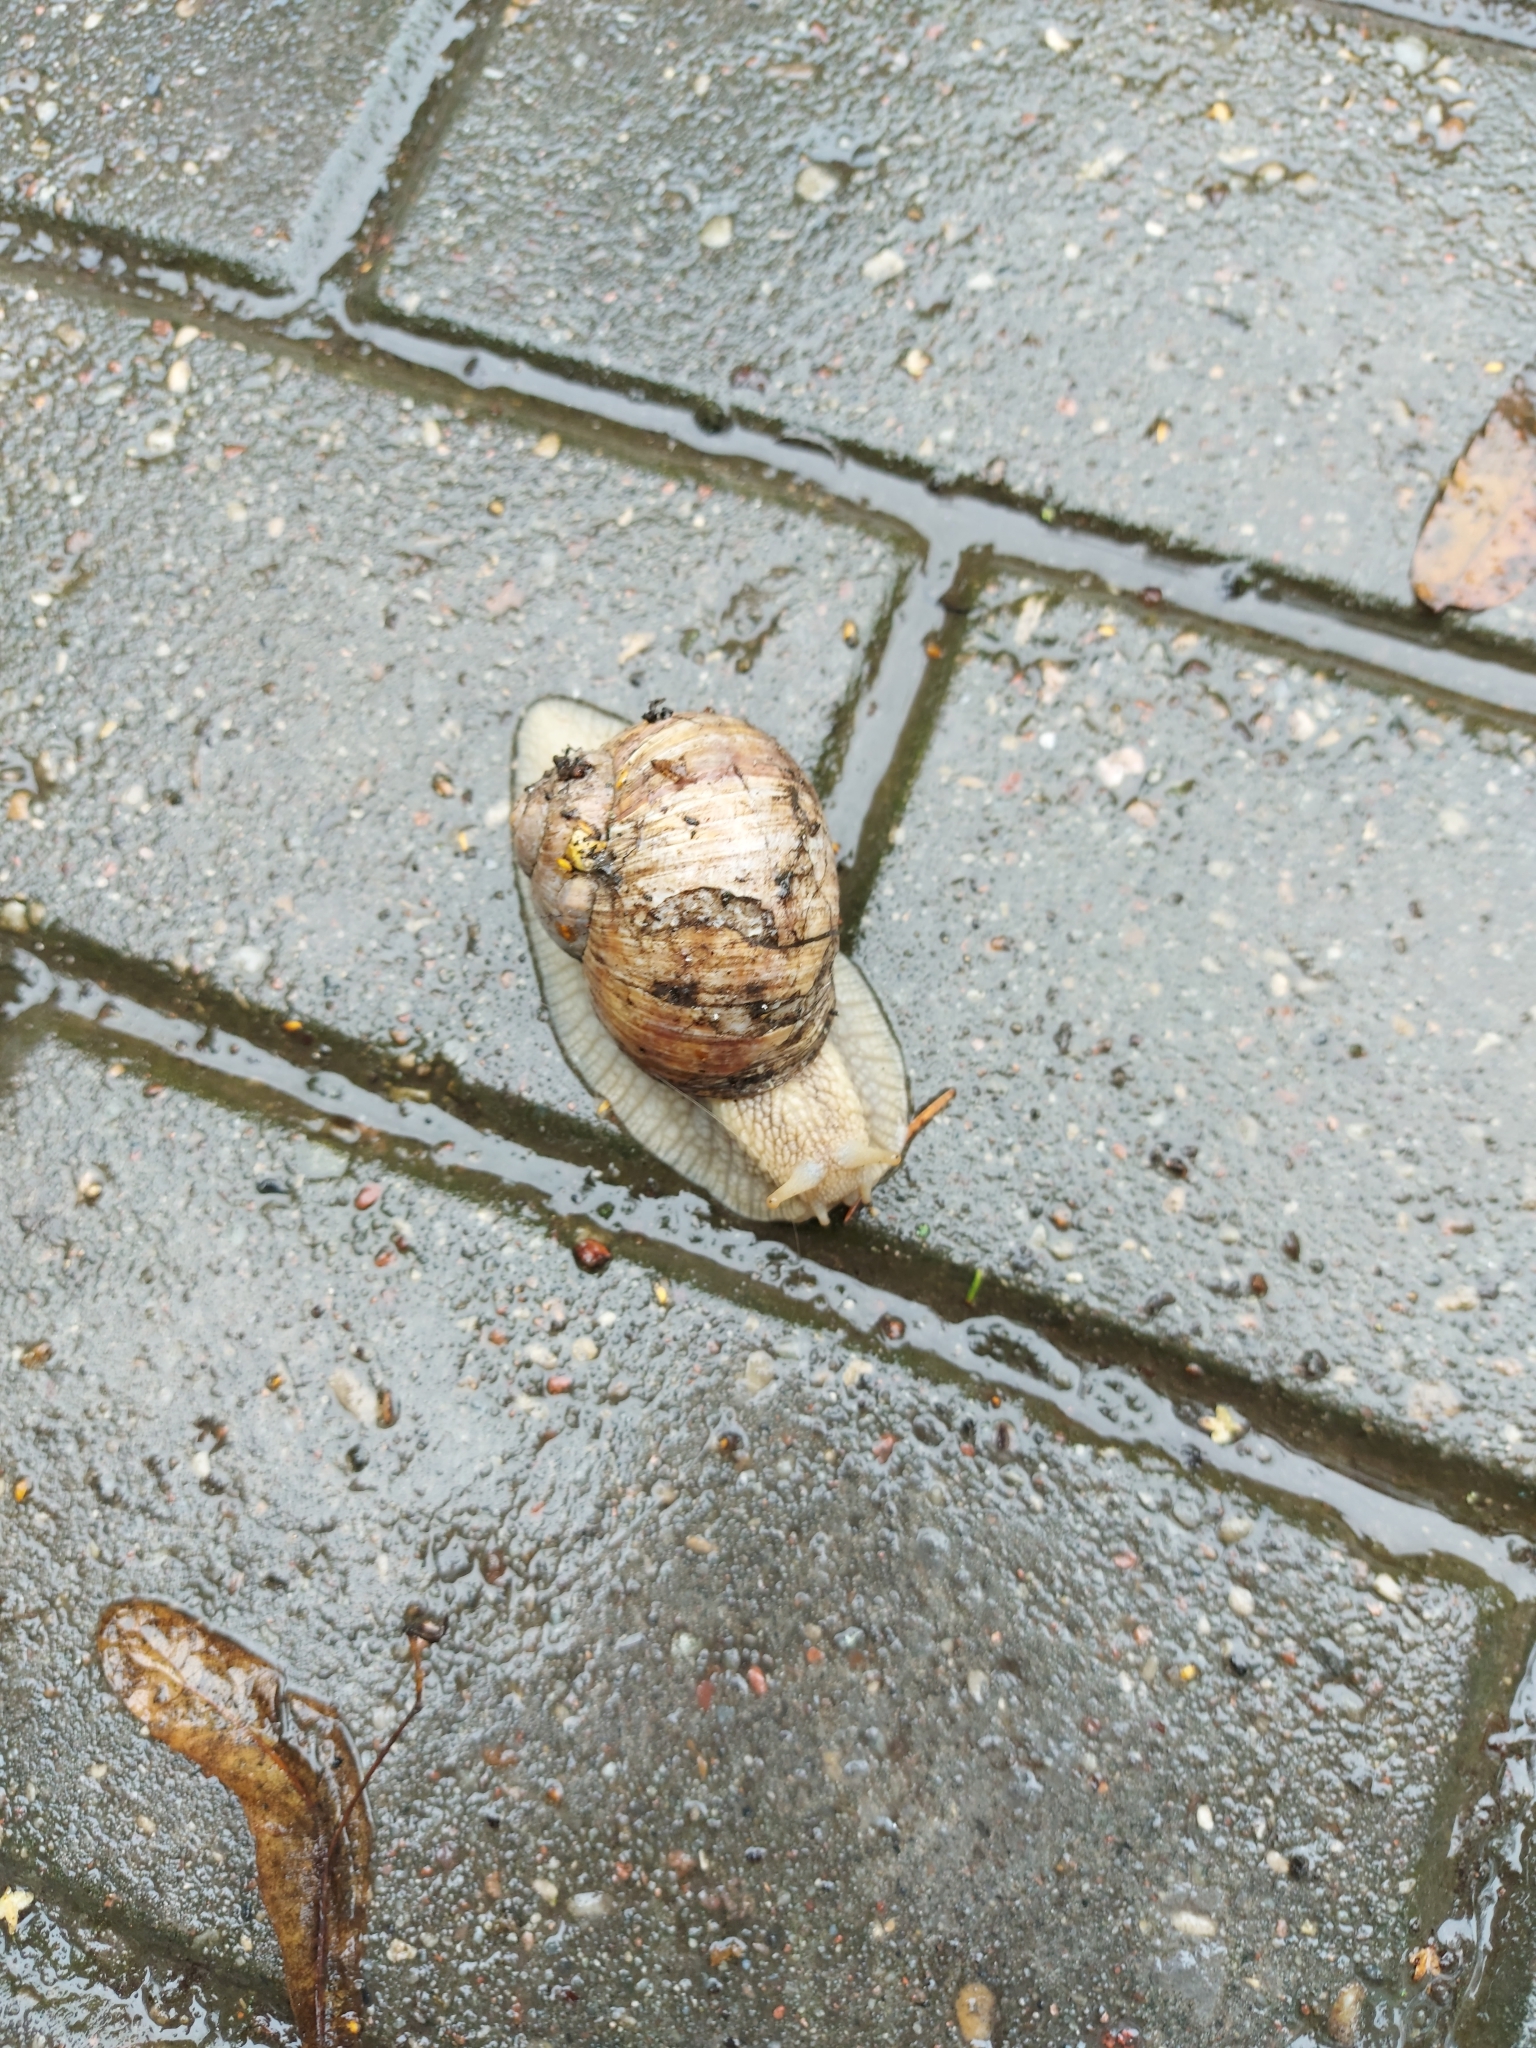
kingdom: Animalia
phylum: Mollusca
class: Gastropoda
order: Stylommatophora
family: Helicidae
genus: Helix
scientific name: Helix pomatia
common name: Roman snail
